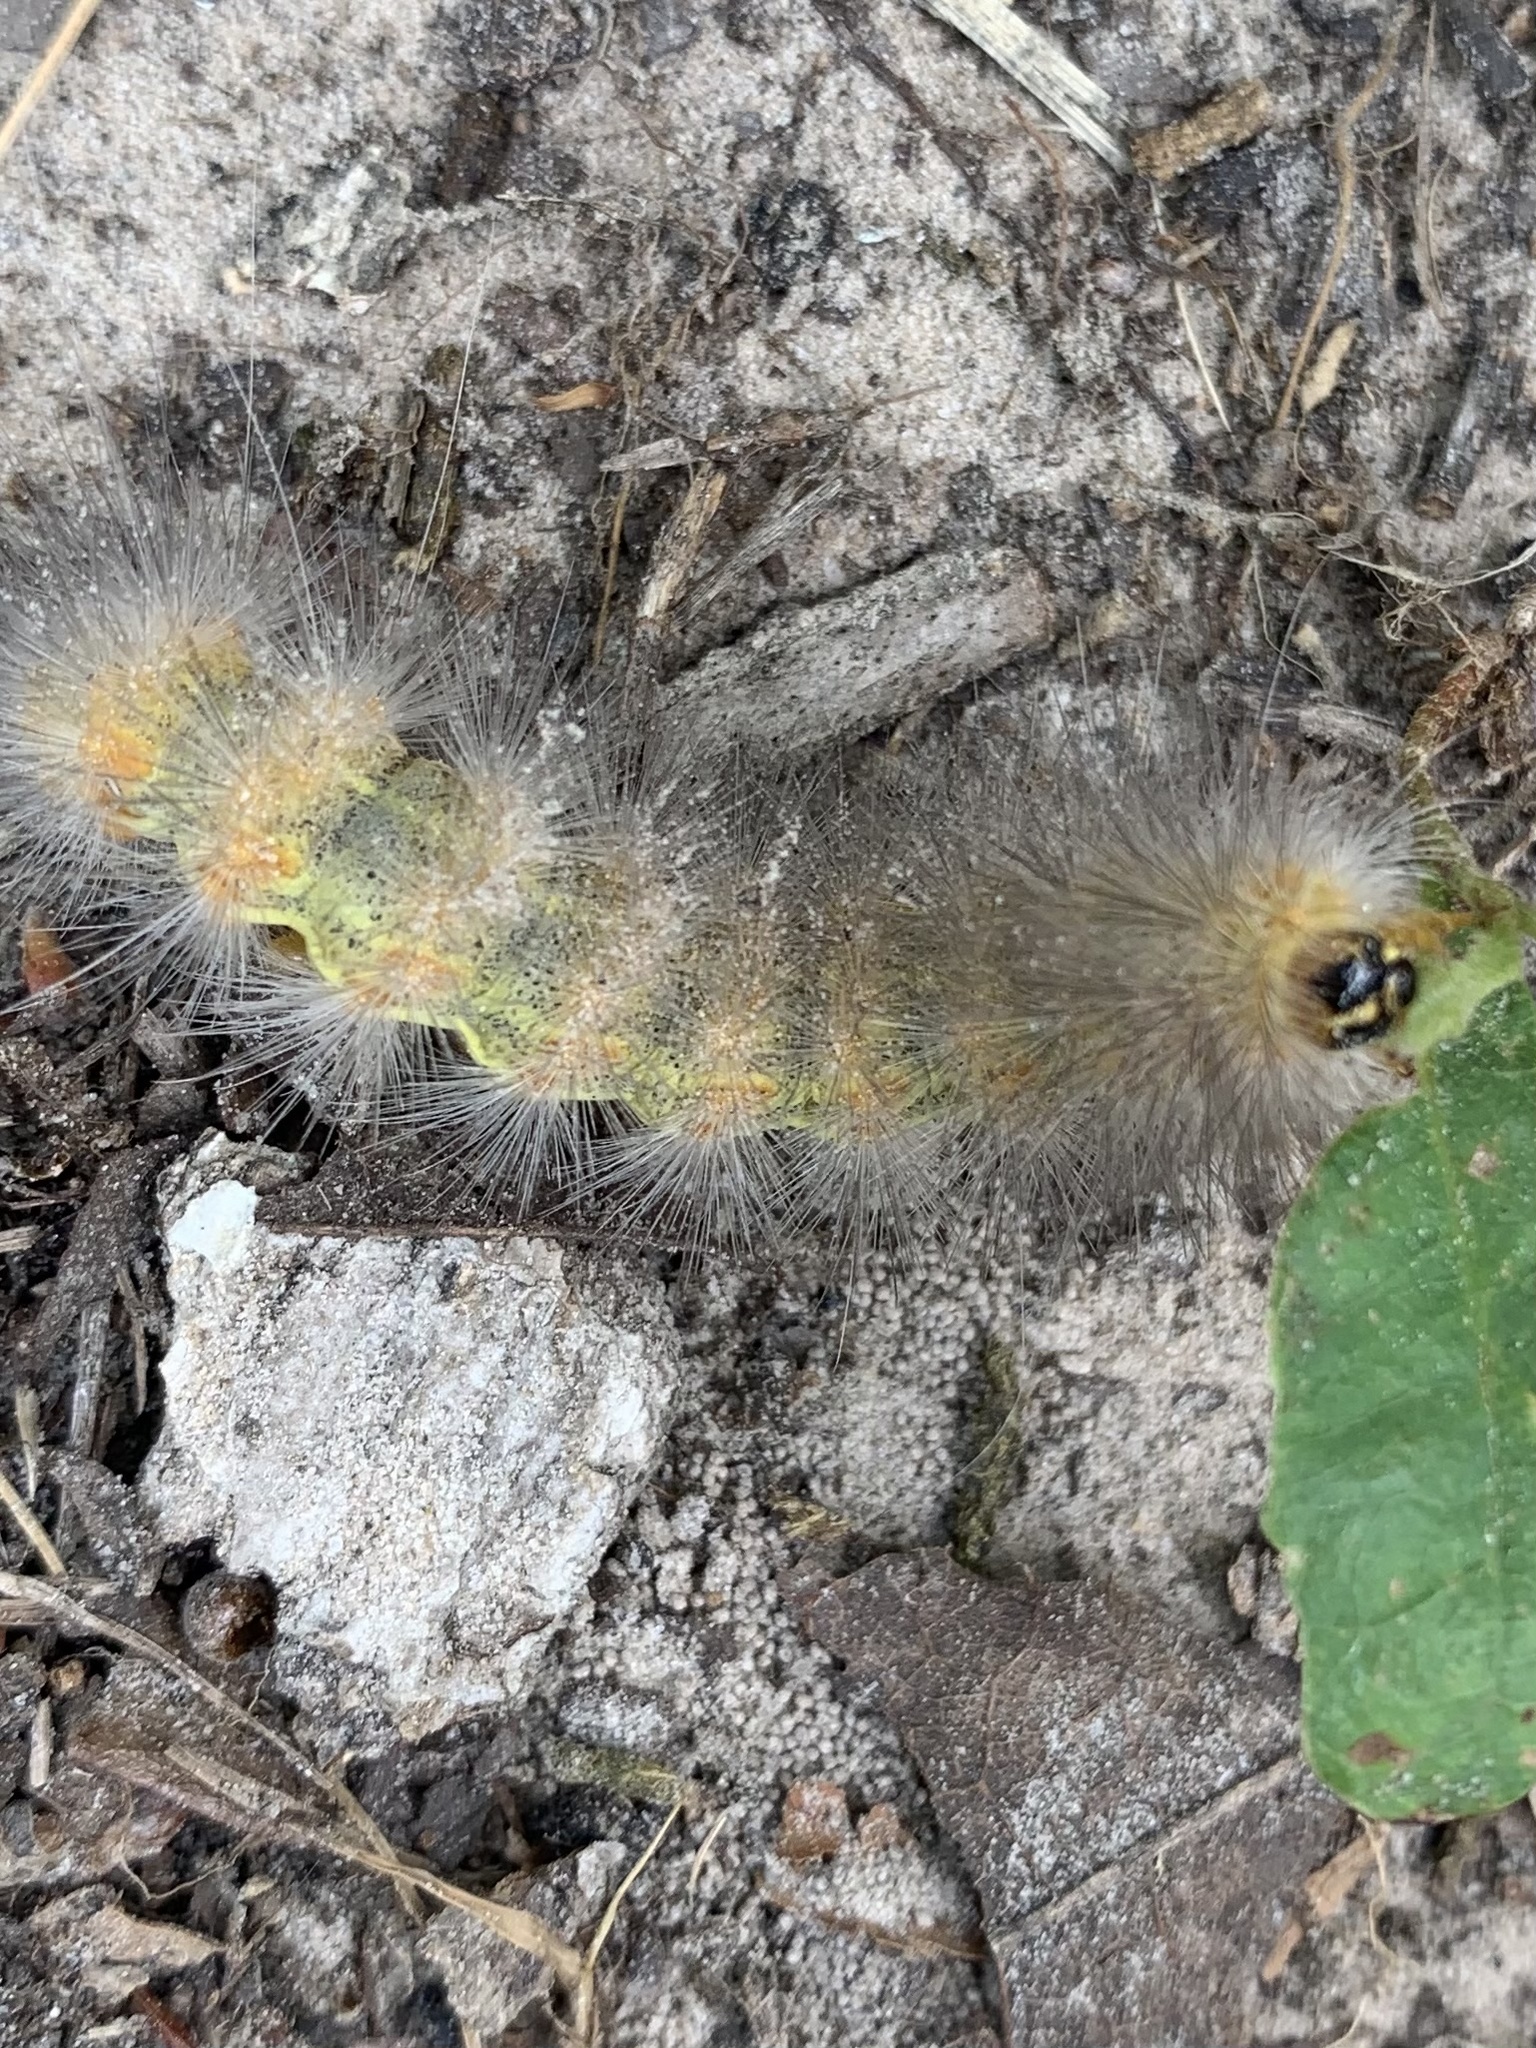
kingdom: Animalia
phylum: Arthropoda
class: Insecta
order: Lepidoptera
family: Erebidae
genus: Estigmene
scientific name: Estigmene acrea
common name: Salt marsh moth
